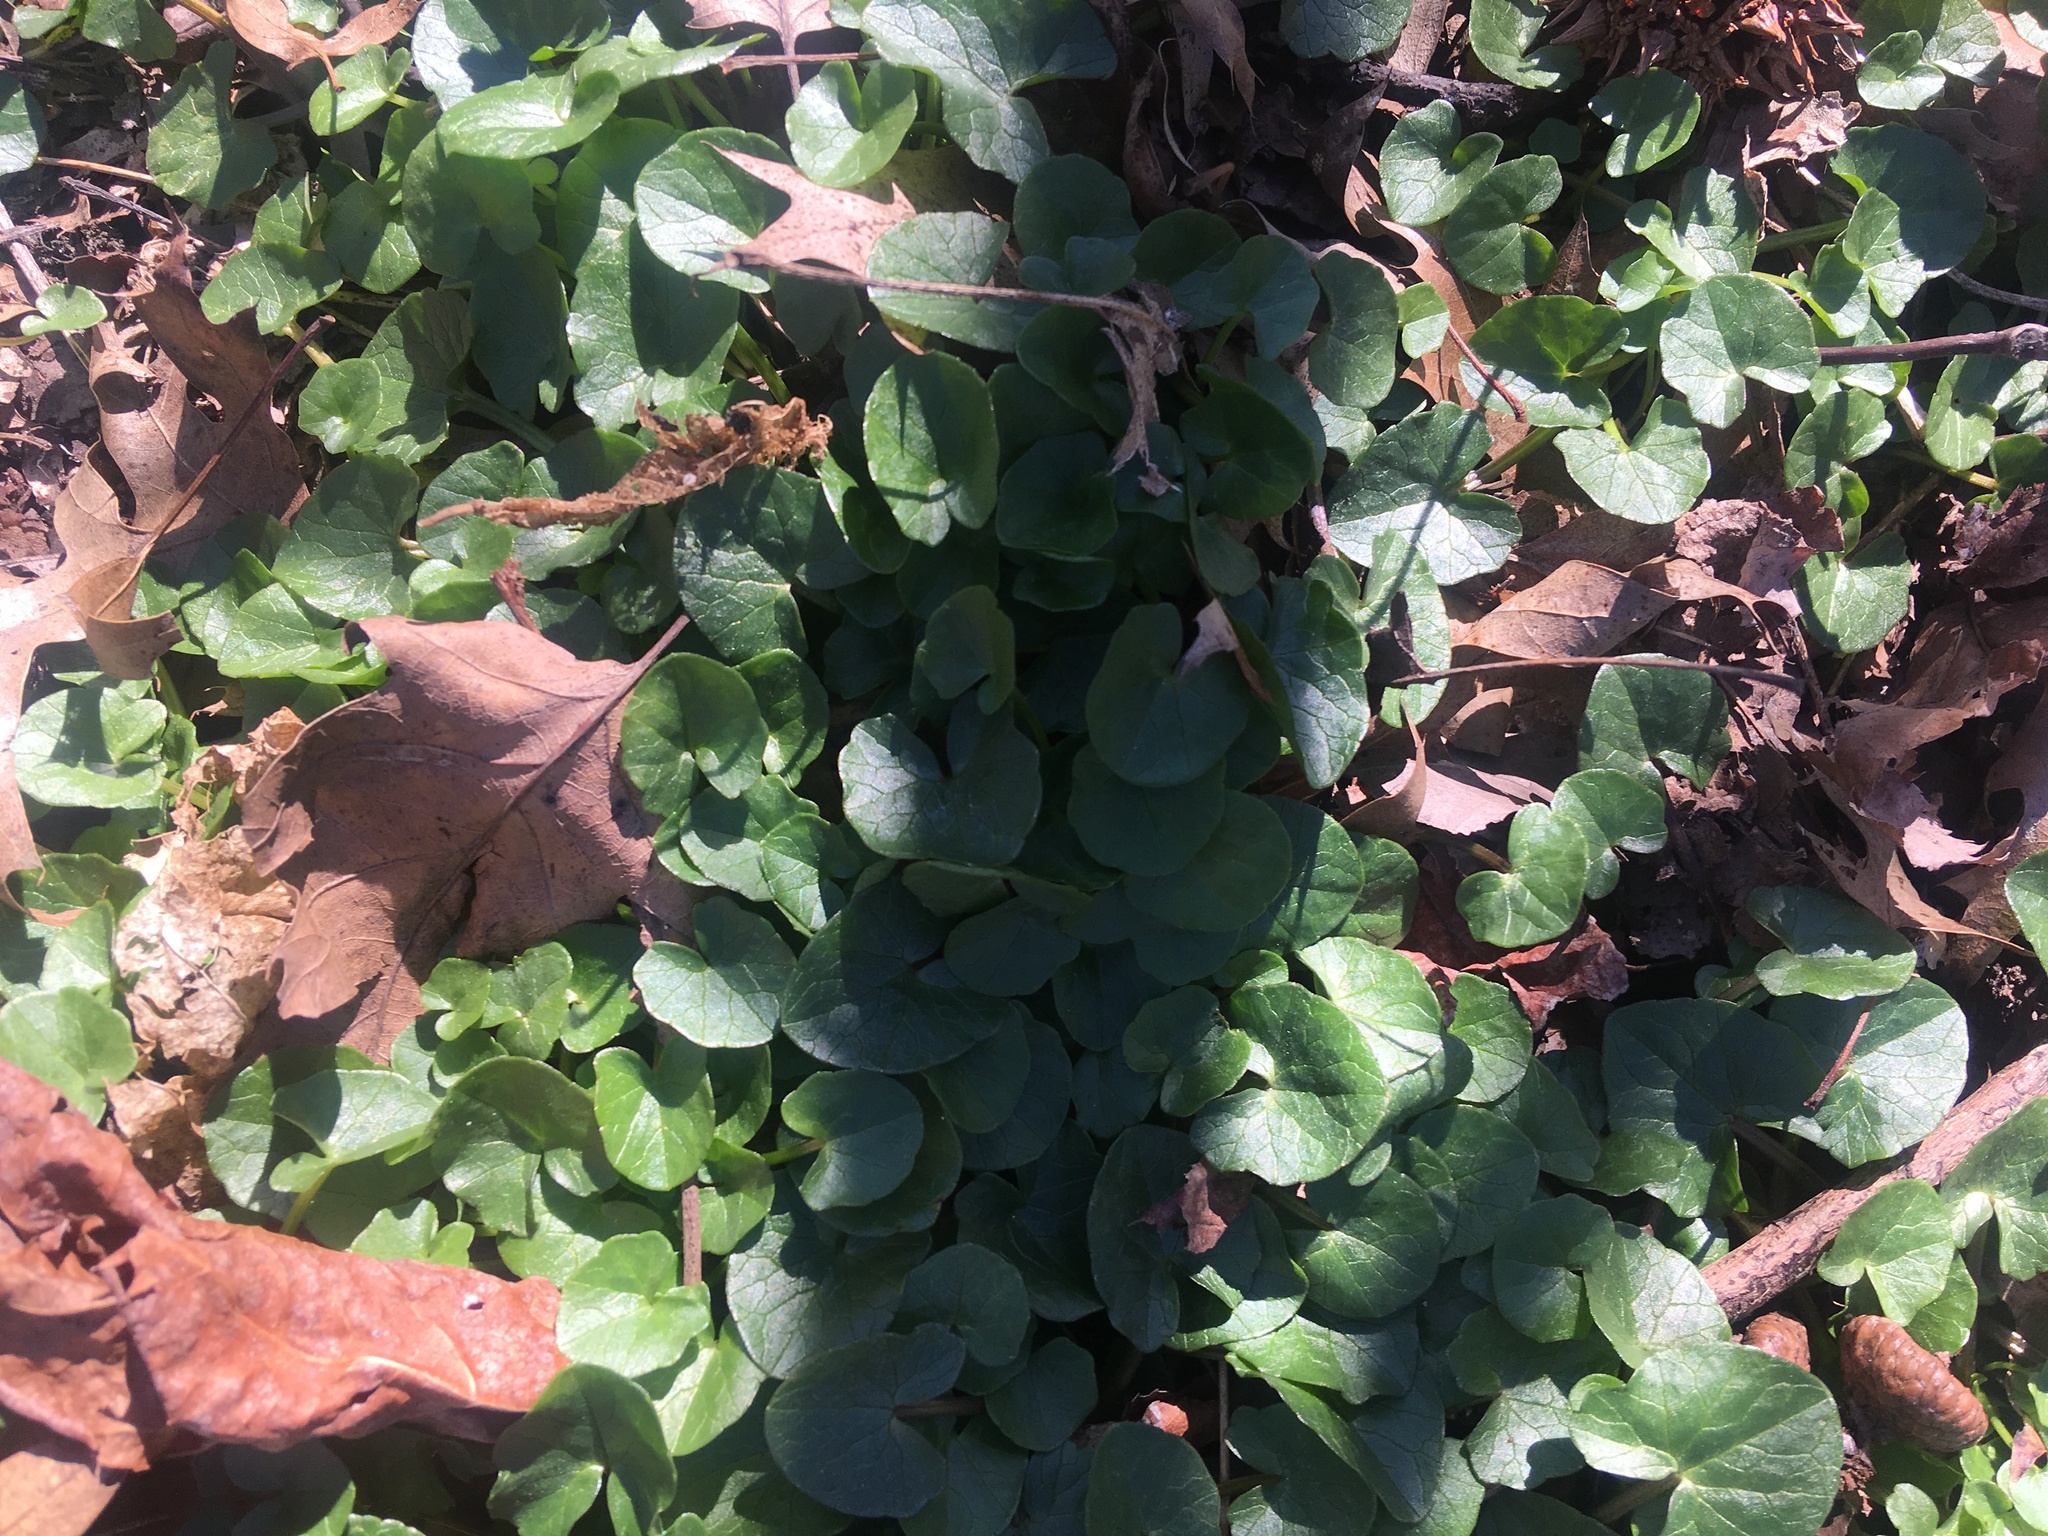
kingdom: Plantae
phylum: Tracheophyta
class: Magnoliopsida
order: Ranunculales
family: Ranunculaceae
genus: Ficaria
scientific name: Ficaria verna
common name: Lesser celandine
